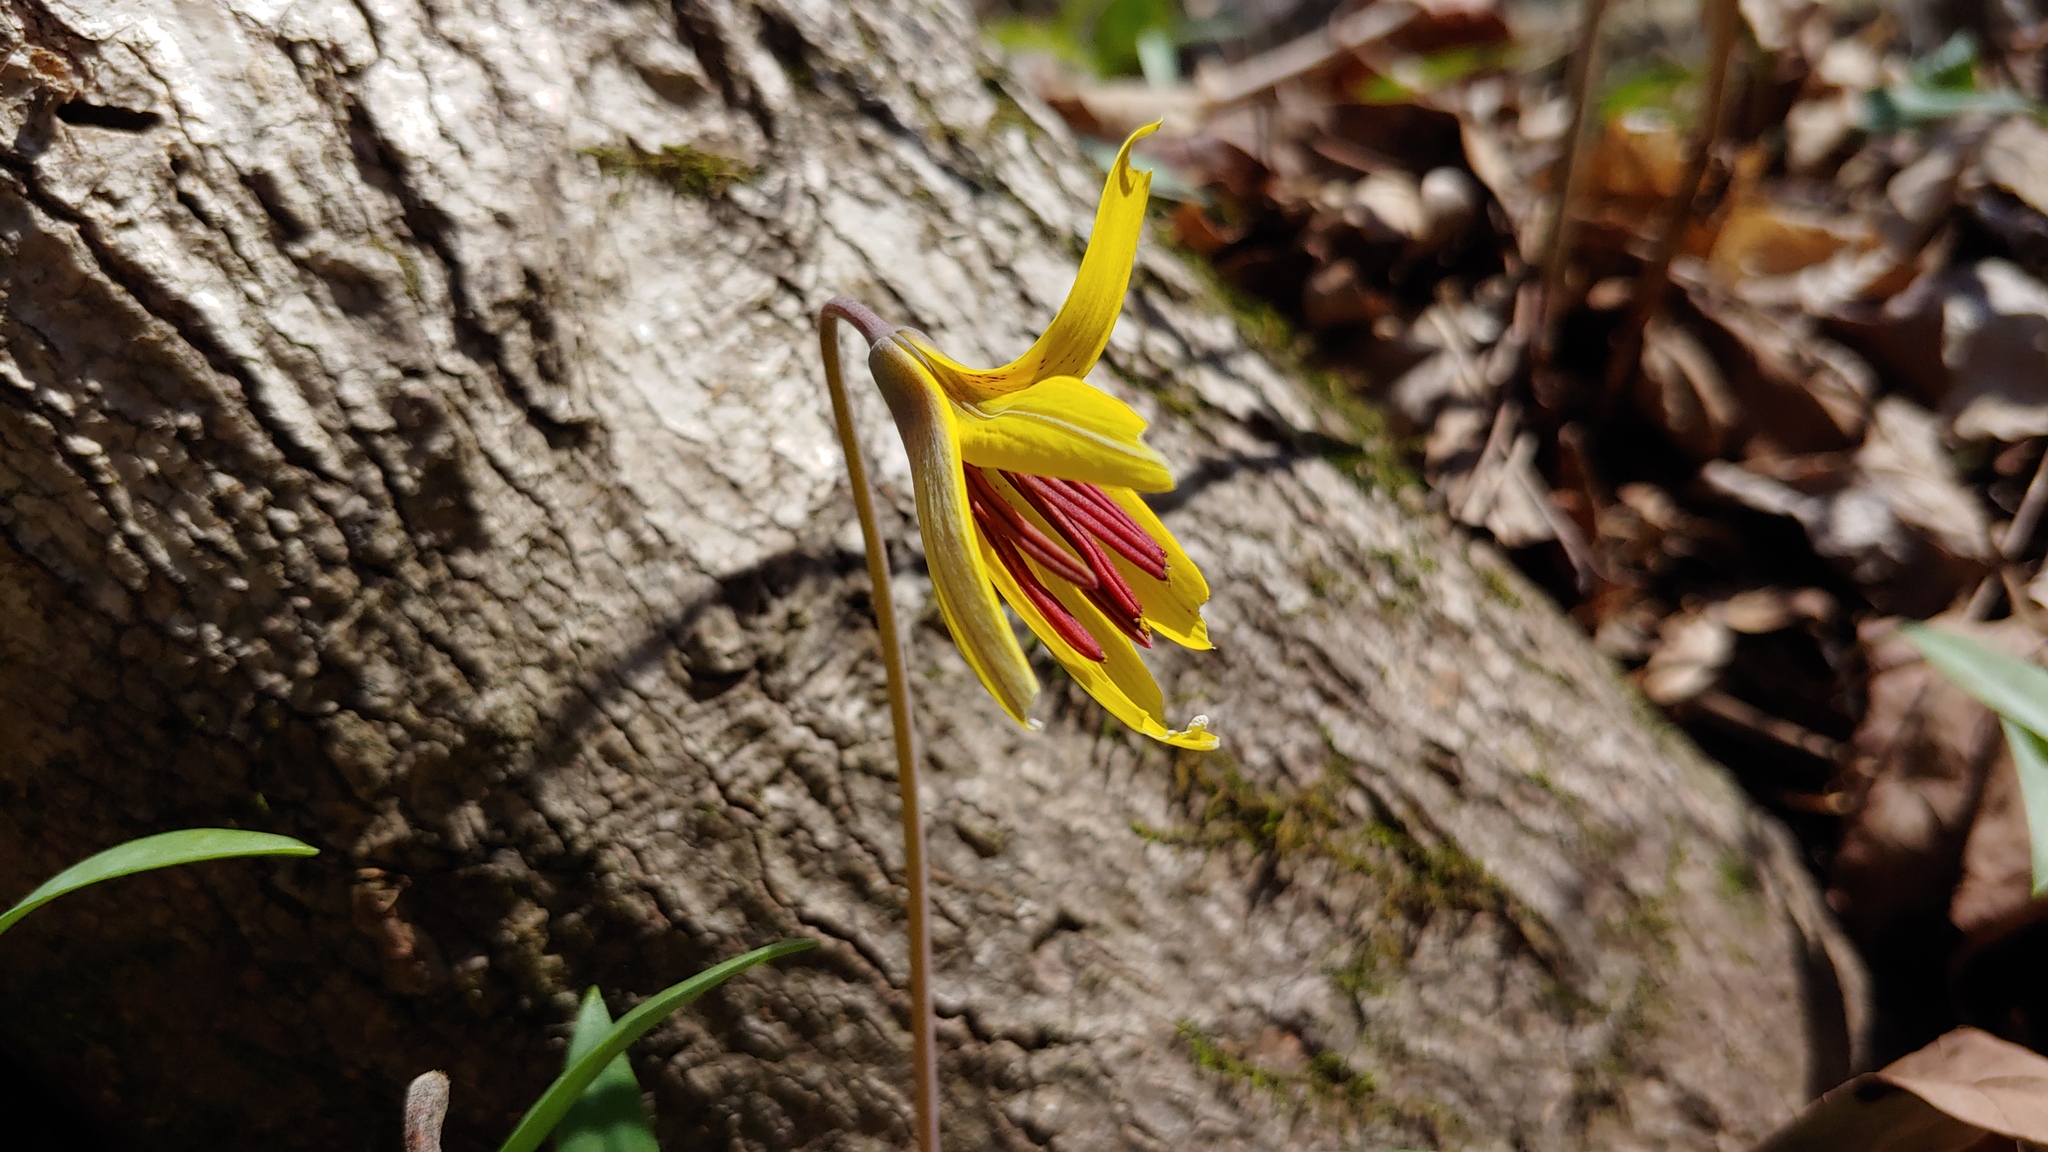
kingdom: Plantae
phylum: Tracheophyta
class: Liliopsida
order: Liliales
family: Liliaceae
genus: Erythronium
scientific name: Erythronium americanum
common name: Yellow adder's-tongue
